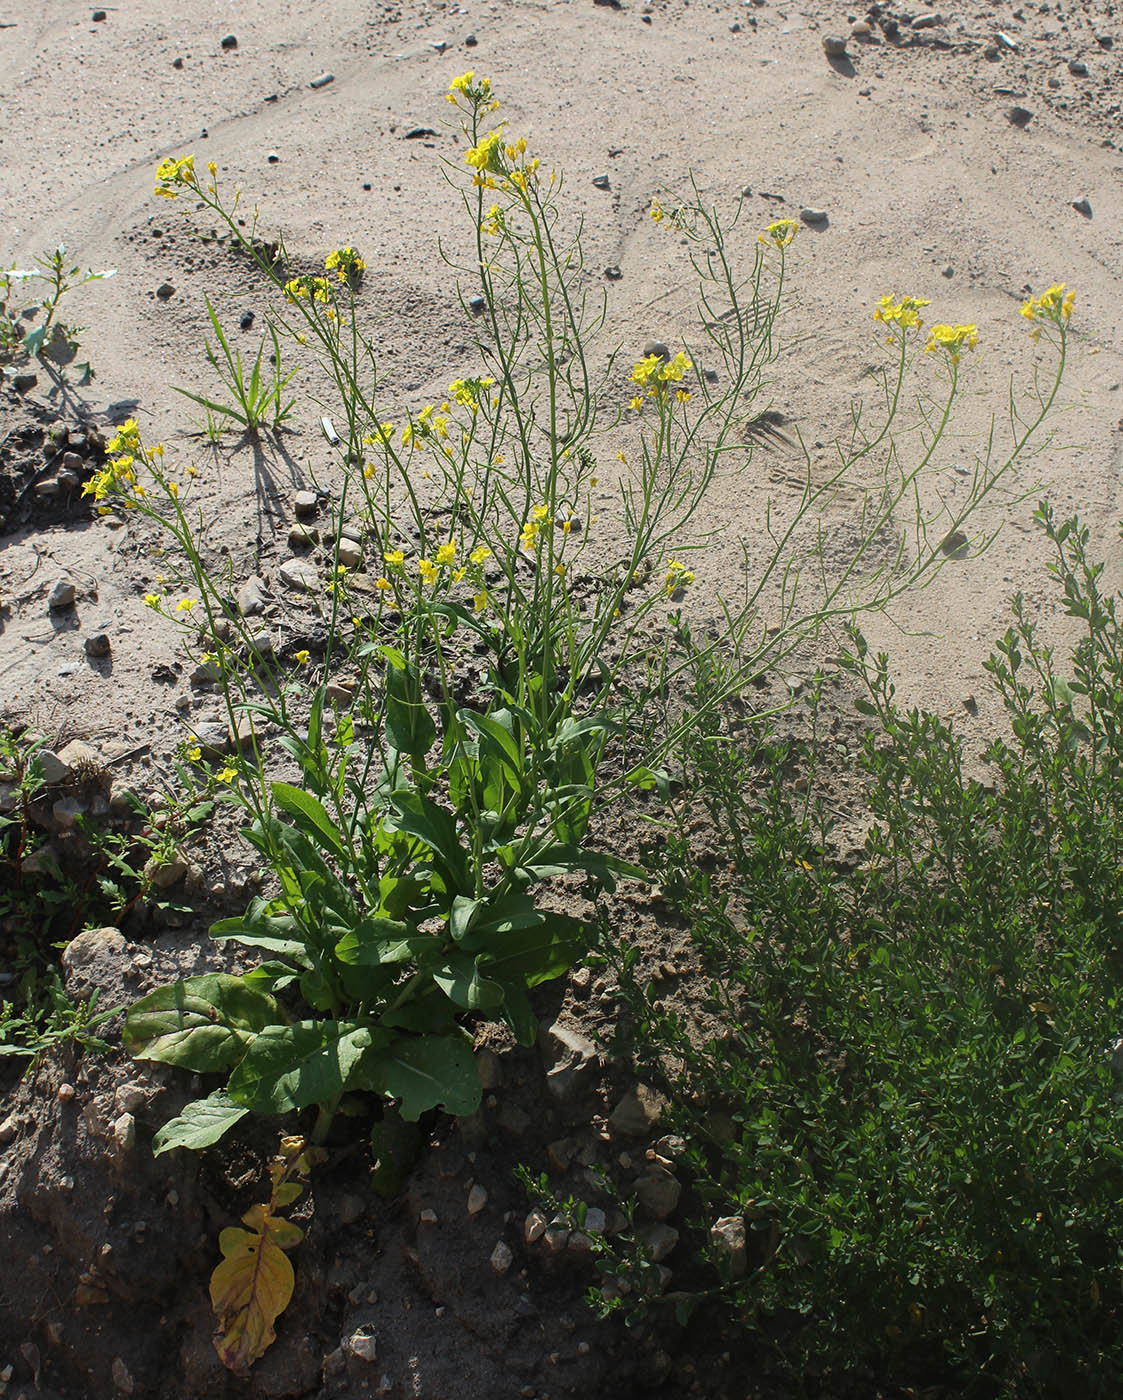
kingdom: Plantae
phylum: Tracheophyta
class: Magnoliopsida
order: Brassicales
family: Brassicaceae
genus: Brassica
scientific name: Brassica rapa
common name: Field mustard
